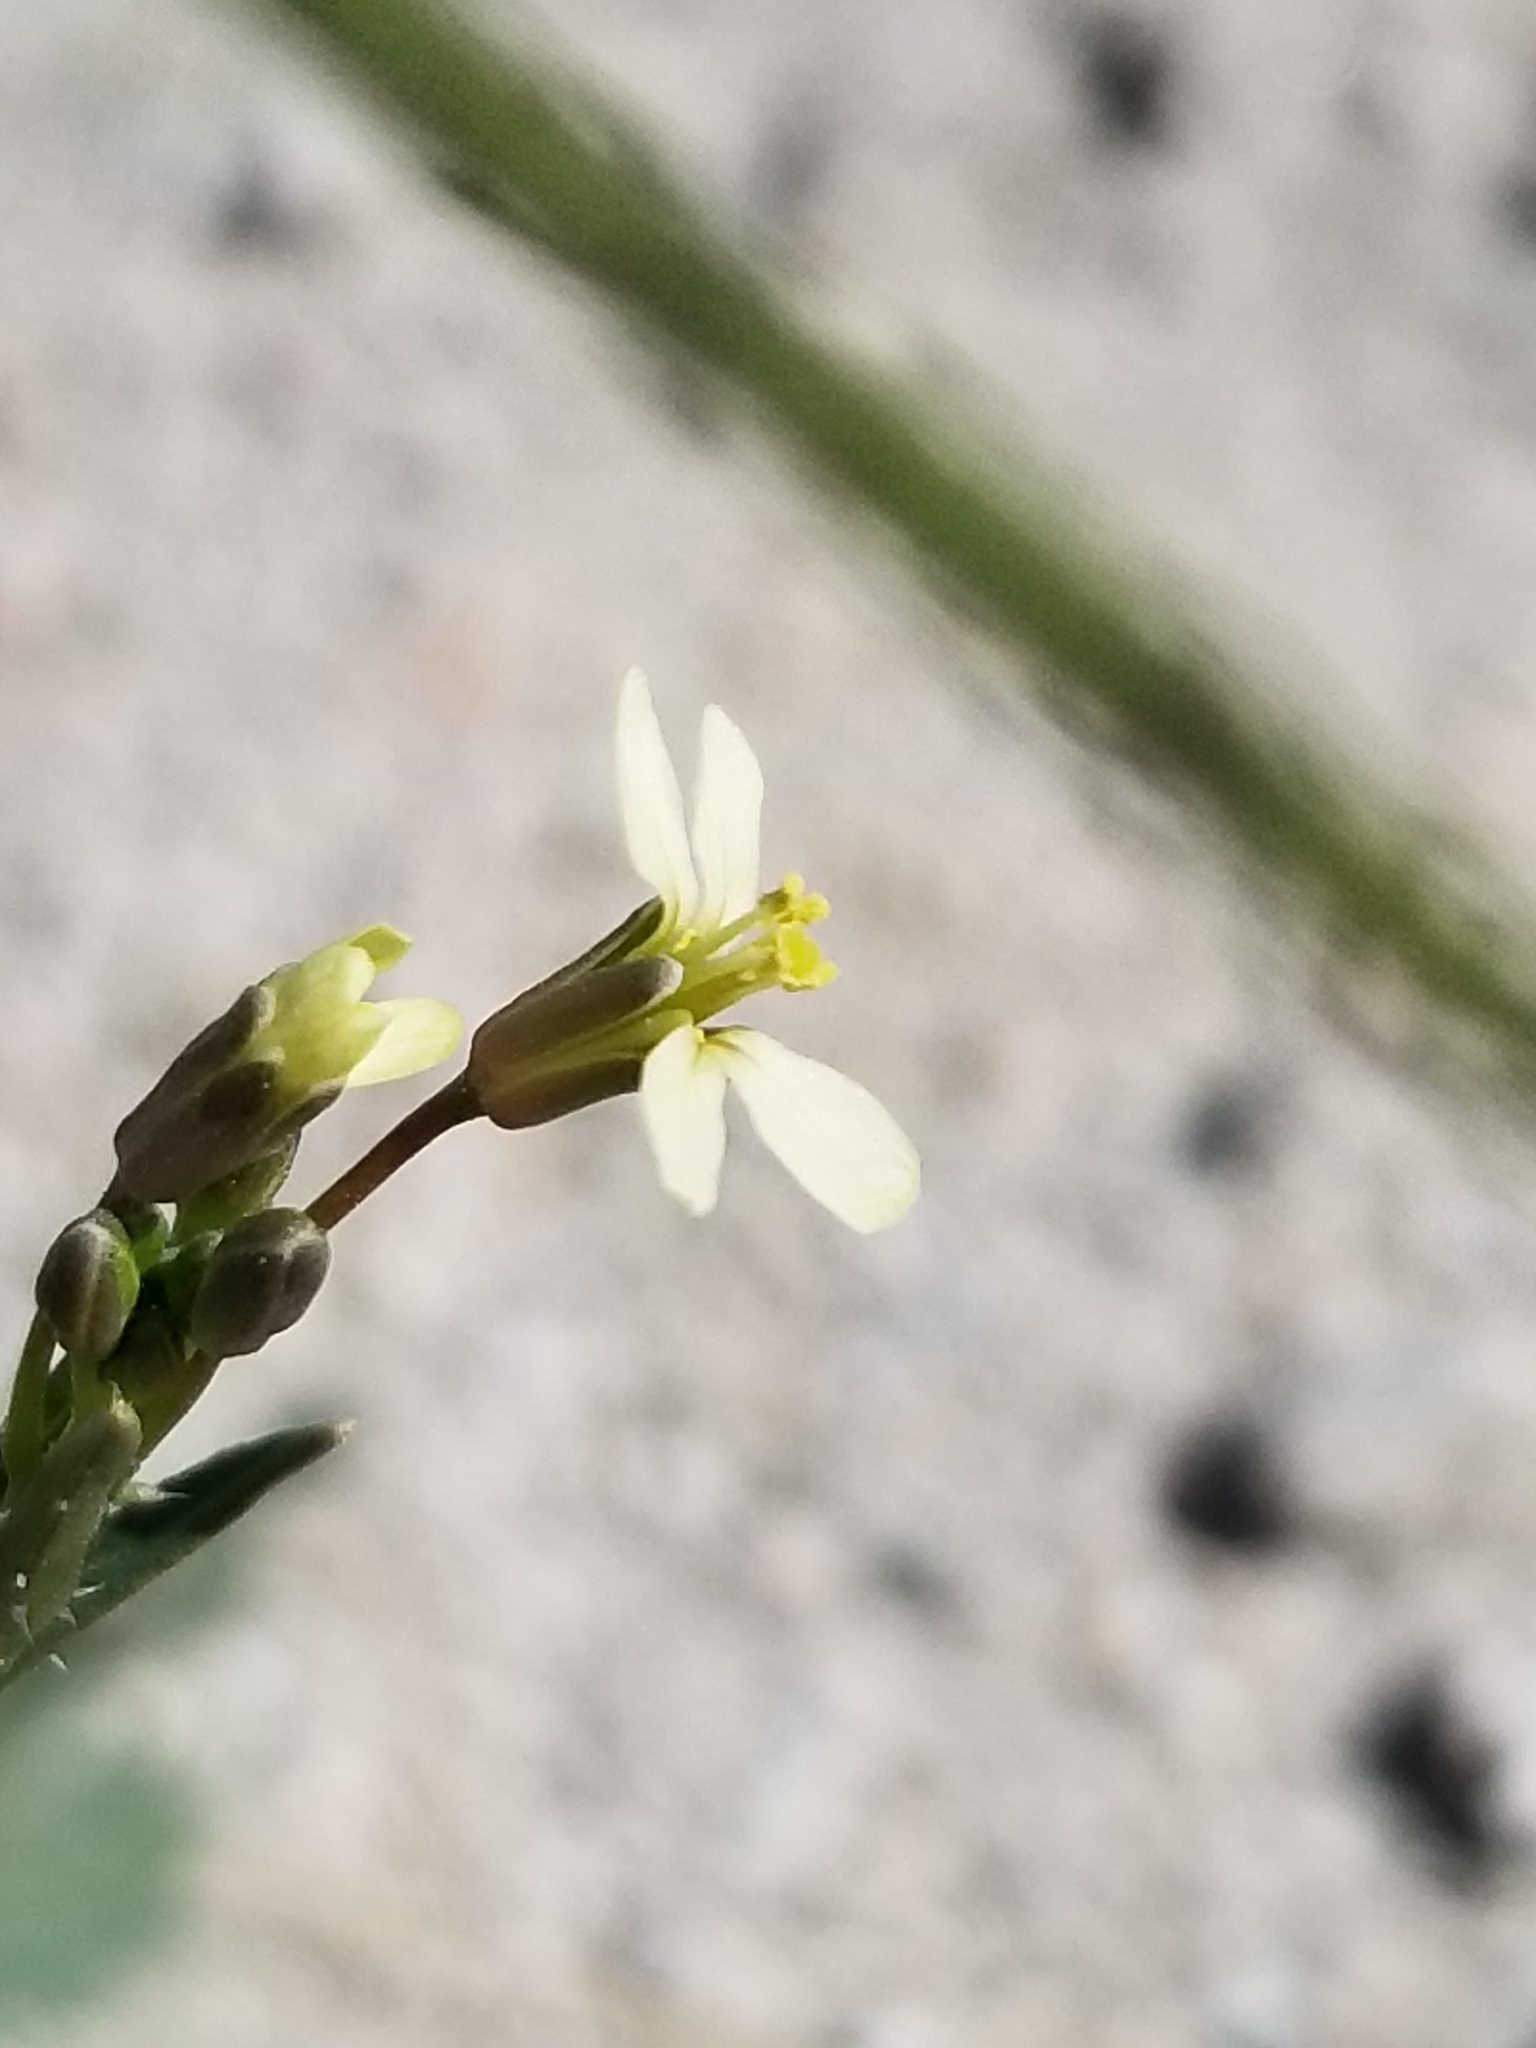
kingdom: Plantae
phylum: Tracheophyta
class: Magnoliopsida
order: Brassicales
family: Brassicaceae
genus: Brassica
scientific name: Brassica tournefortii
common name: Pale cabbage
